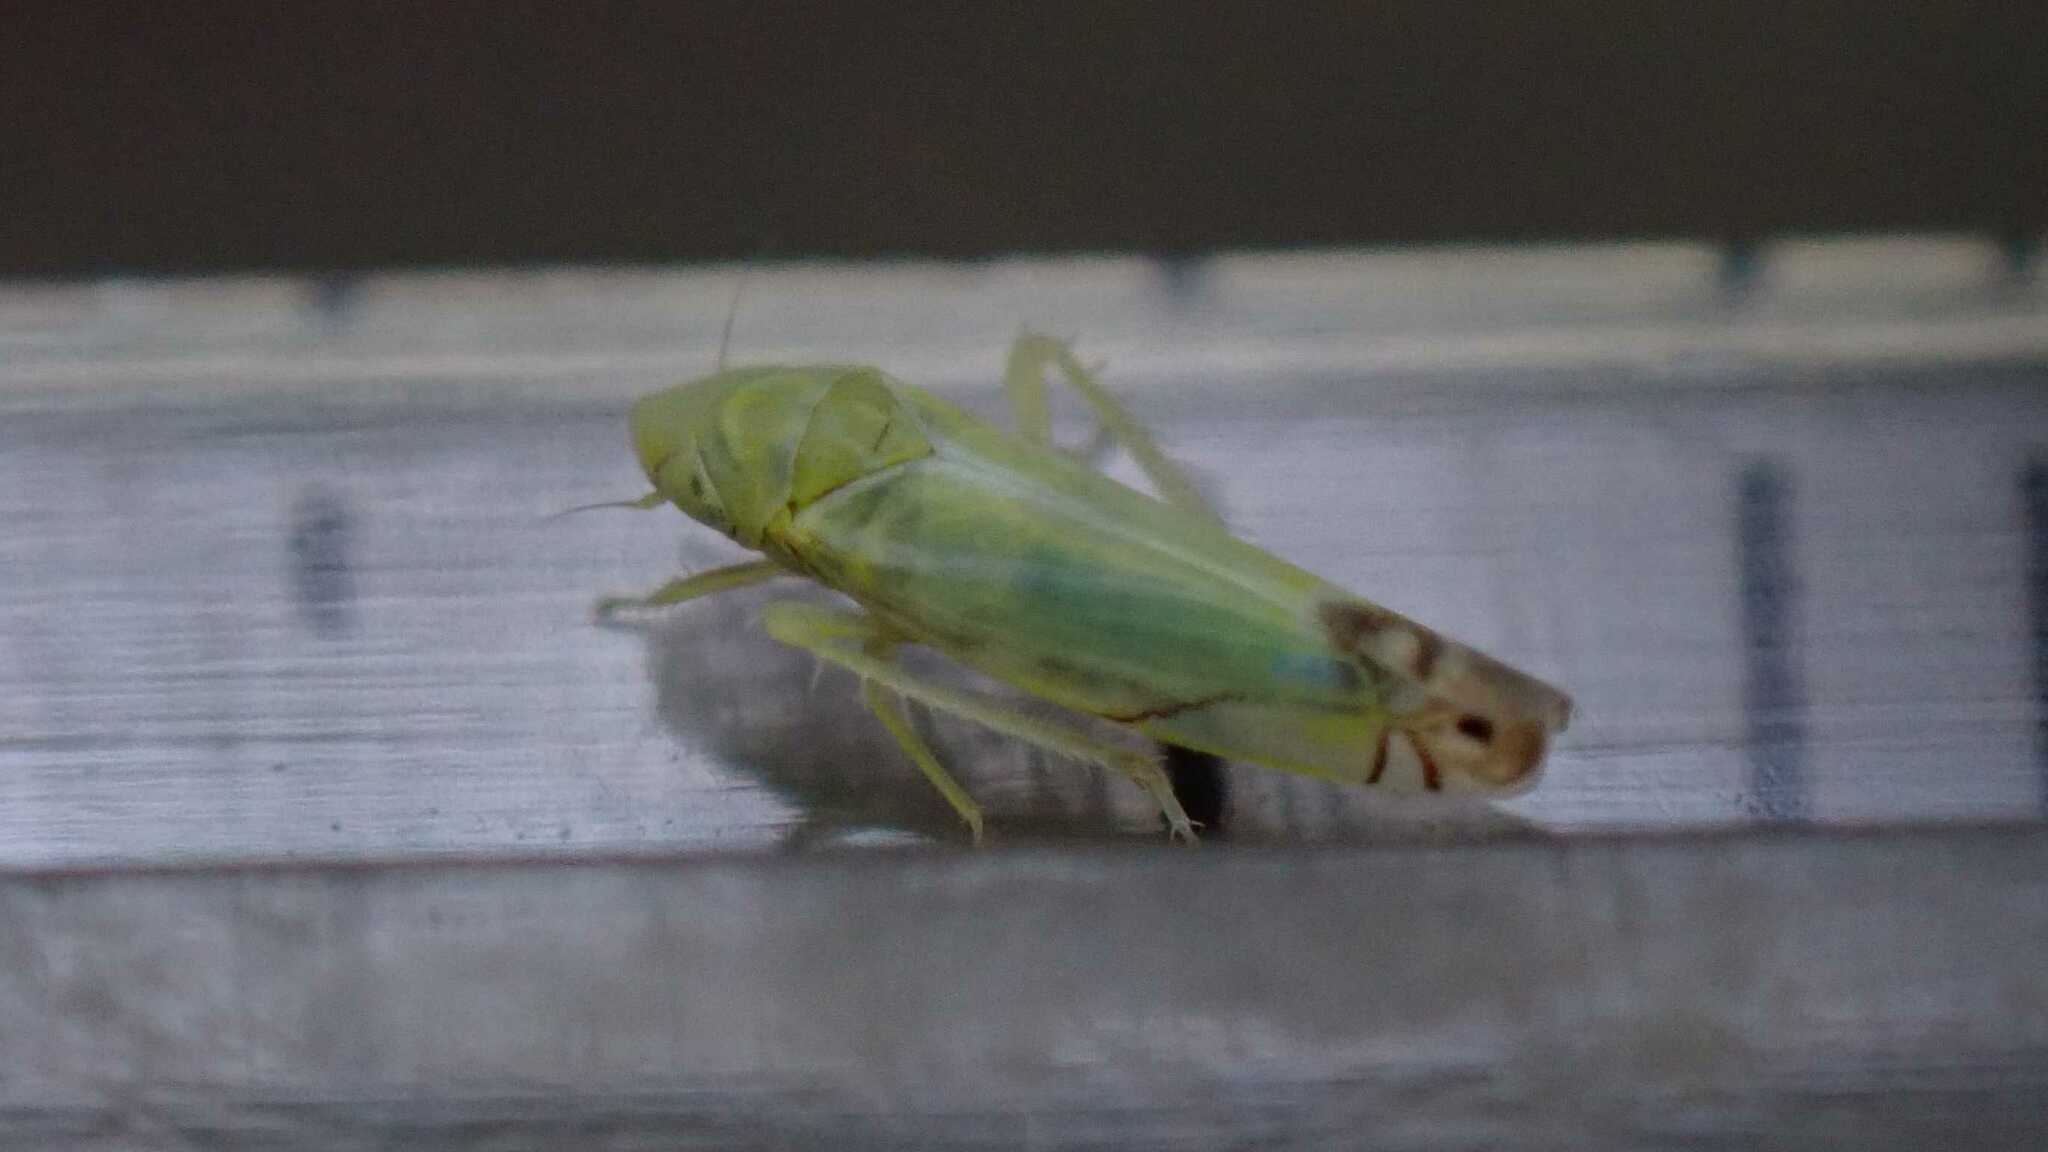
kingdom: Animalia
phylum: Arthropoda
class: Insecta
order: Hemiptera
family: Cicadellidae
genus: Zyginella
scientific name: Zyginella pulchra
